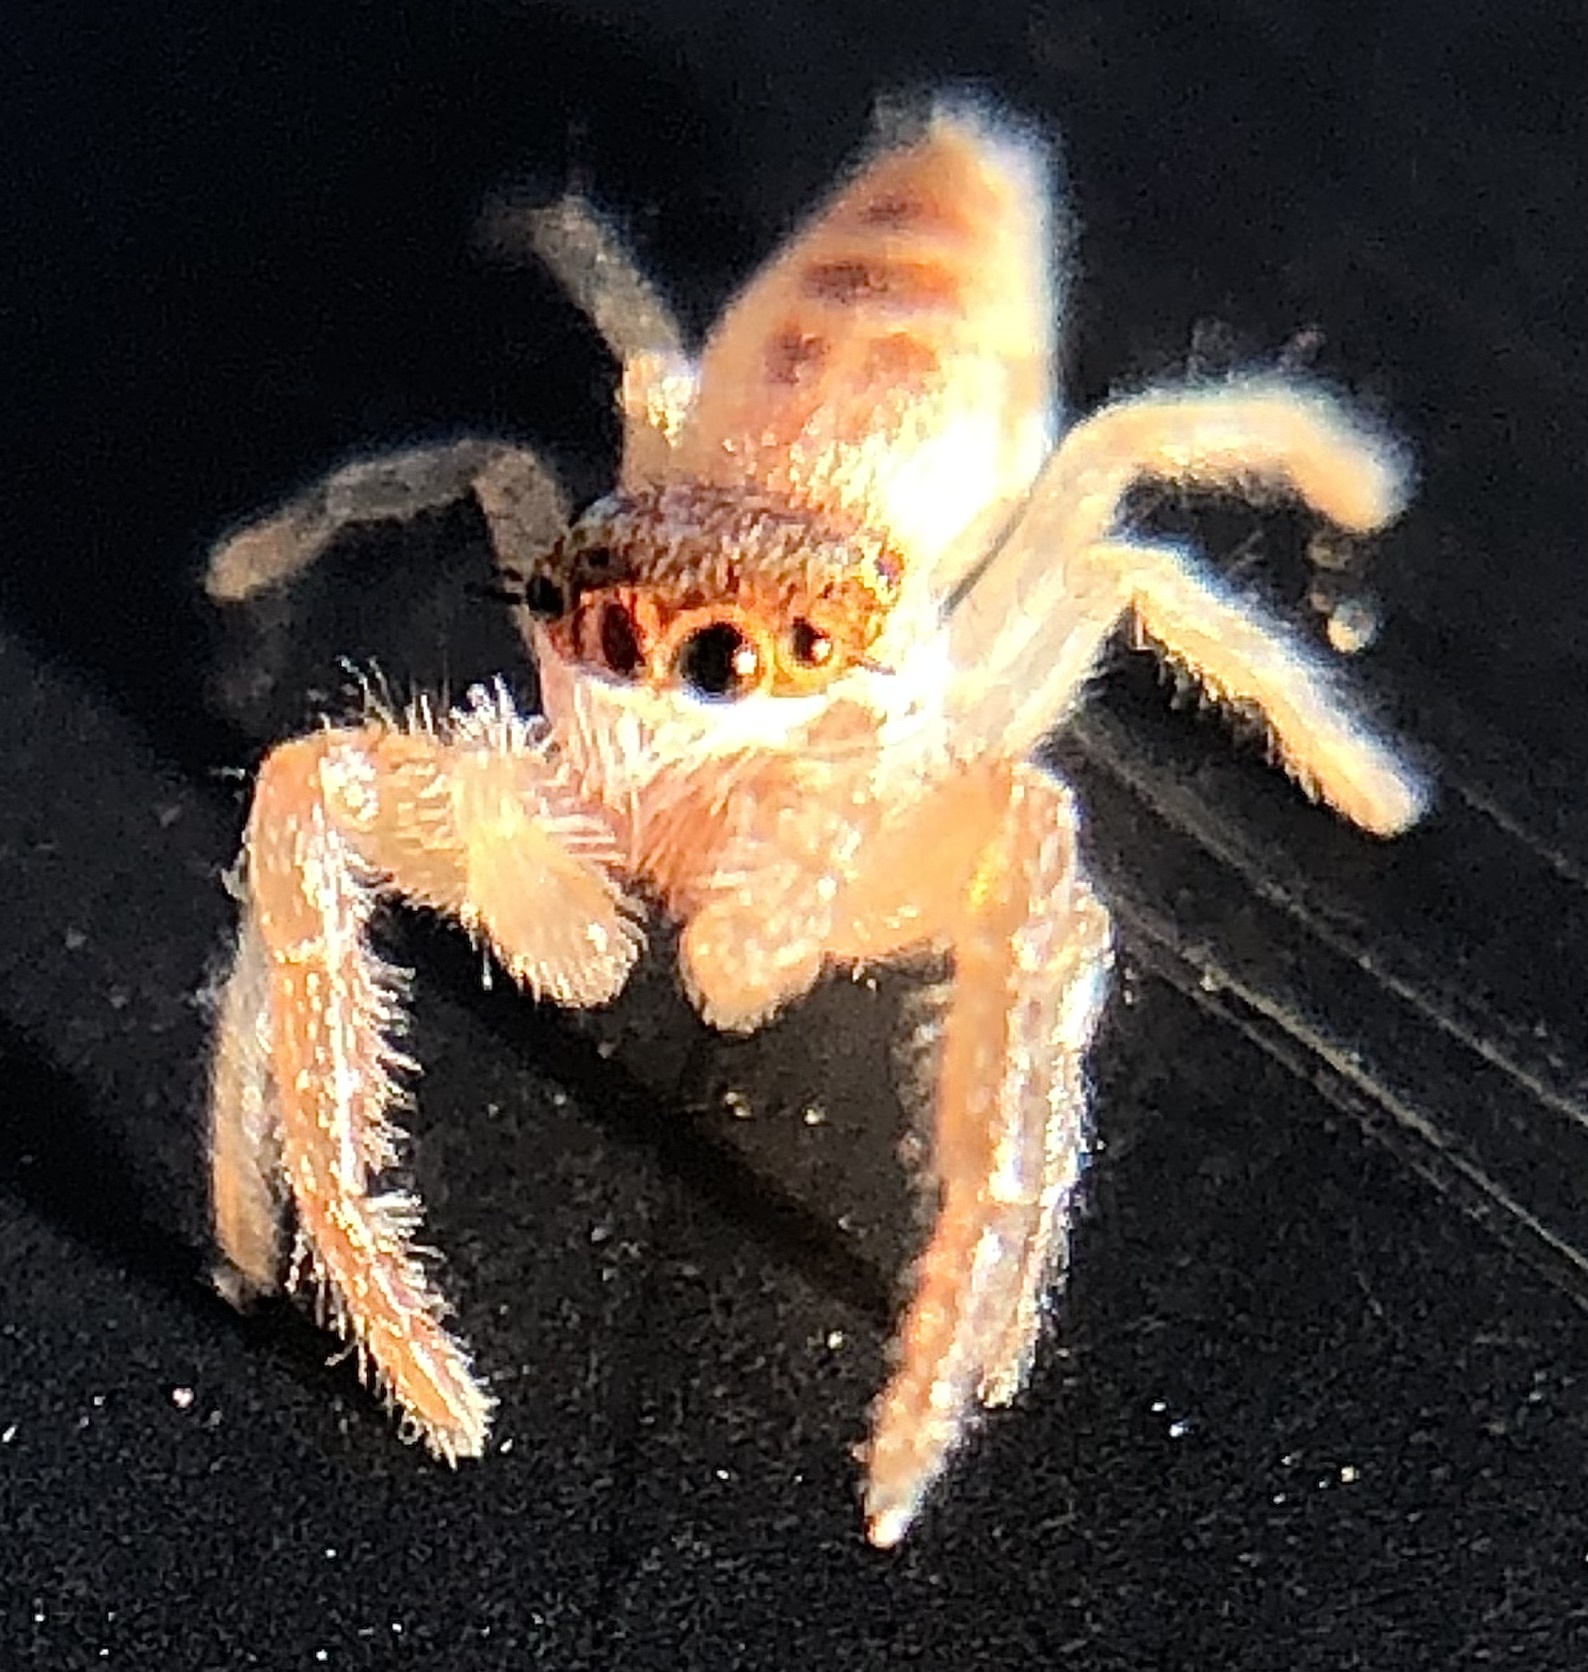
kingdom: Animalia
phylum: Arthropoda
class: Arachnida
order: Araneae
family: Salticidae
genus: Hentzia
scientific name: Hentzia mitrata
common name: White-jawed jumping spider
